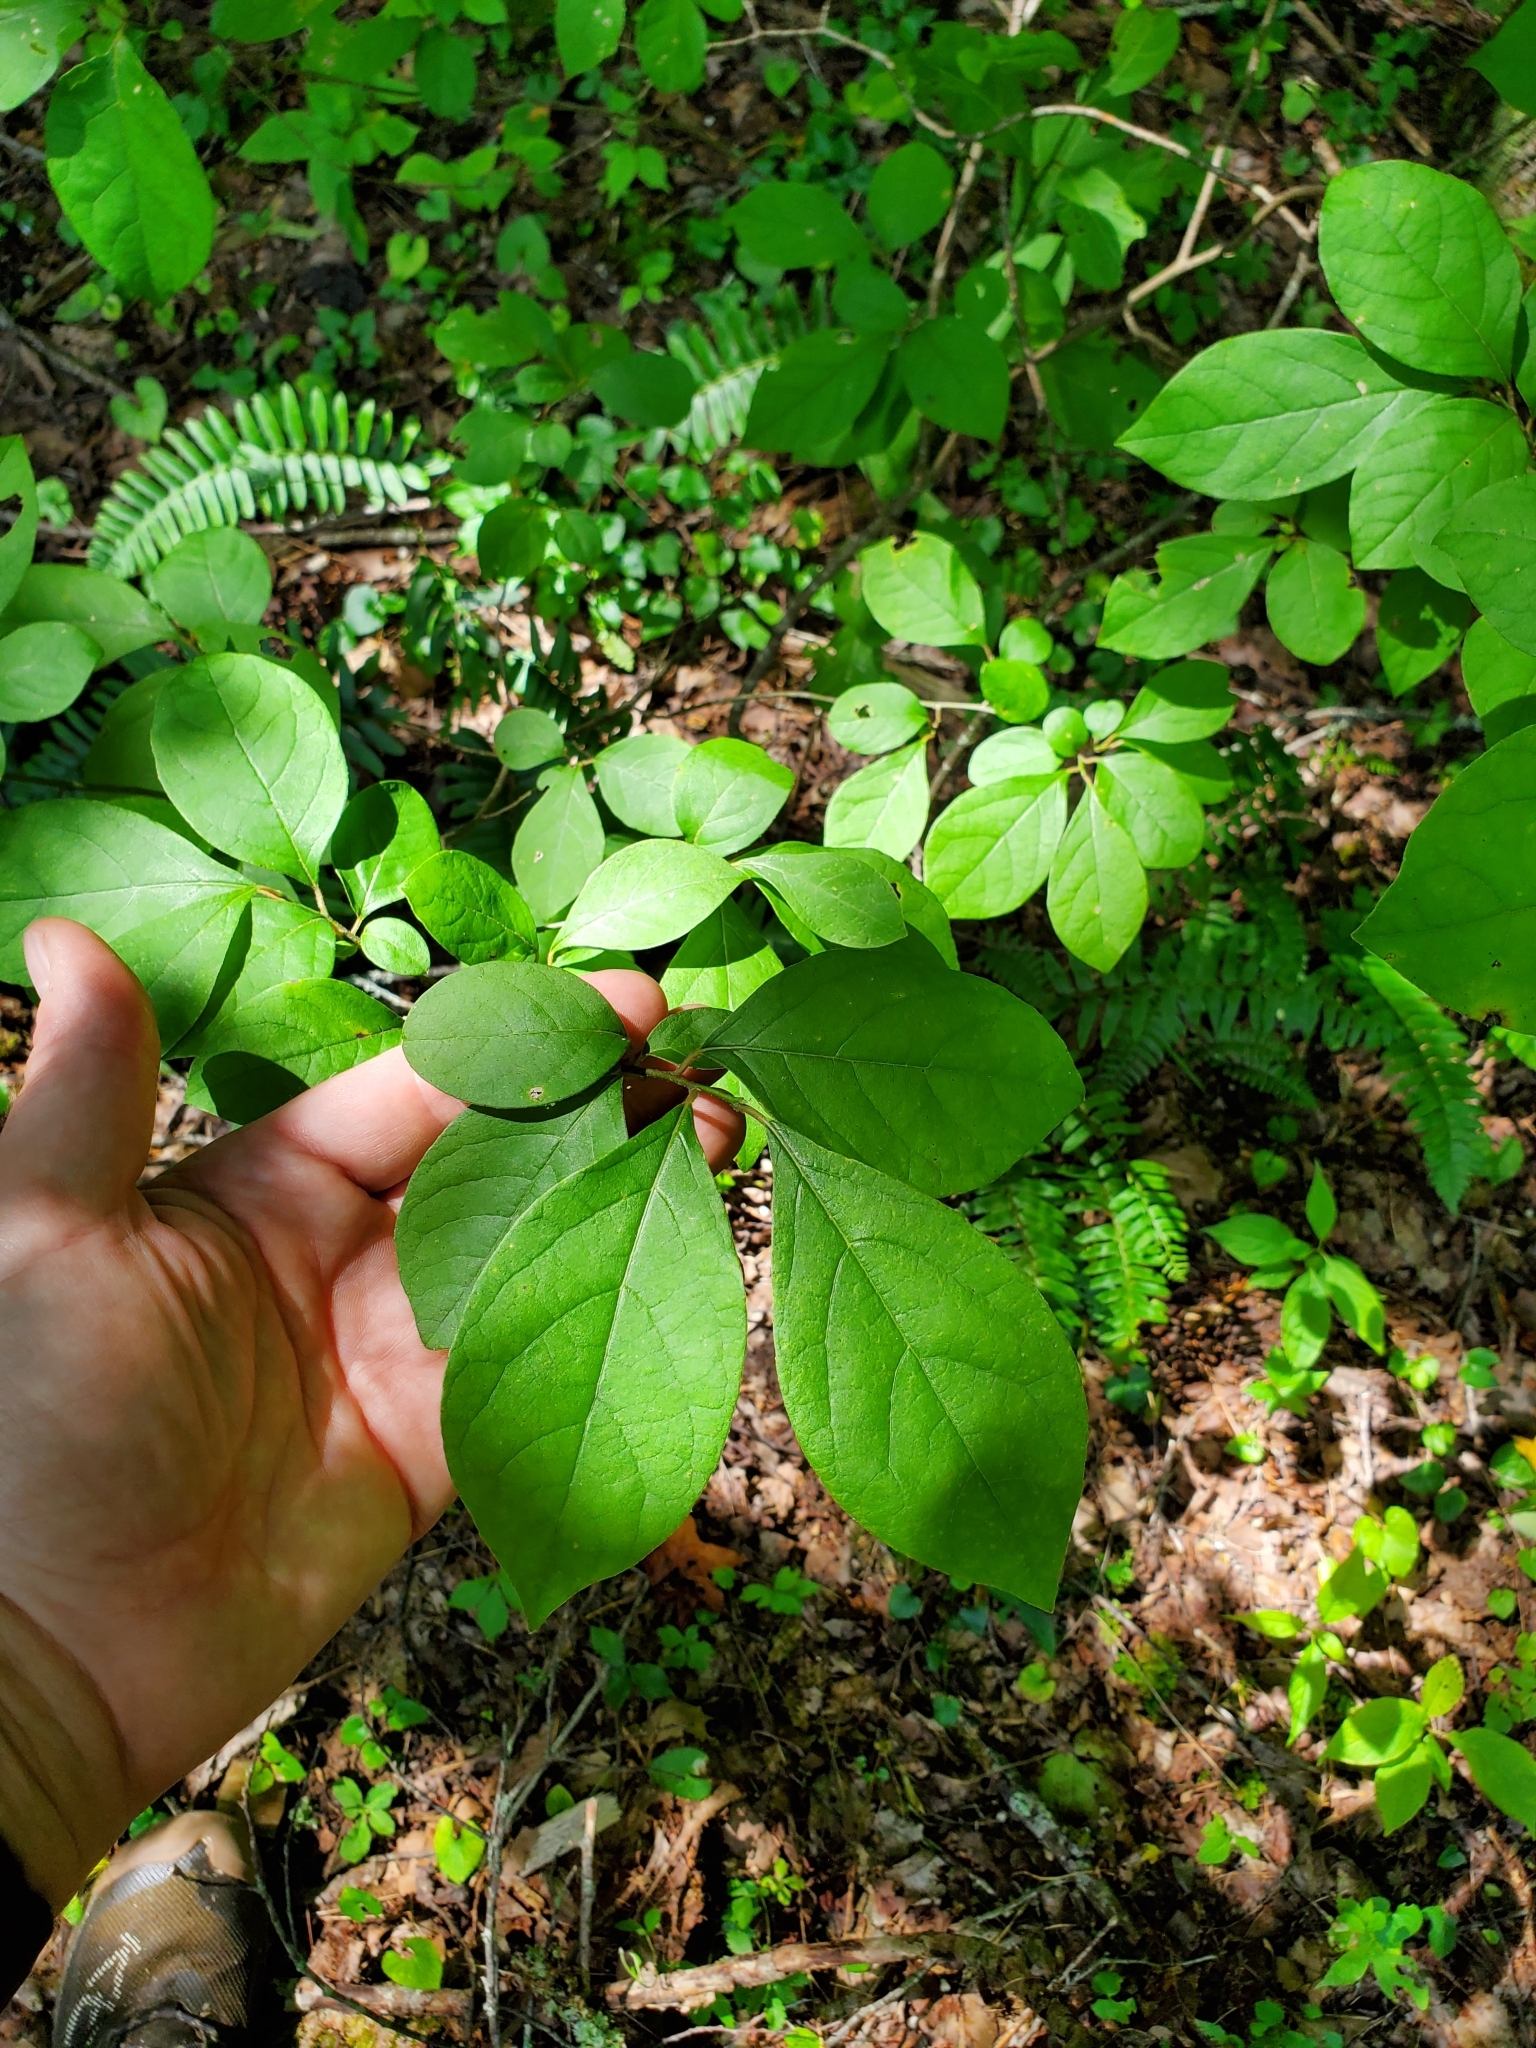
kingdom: Plantae
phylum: Tracheophyta
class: Magnoliopsida
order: Laurales
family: Lauraceae
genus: Lindera
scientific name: Lindera benzoin
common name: Spicebush
